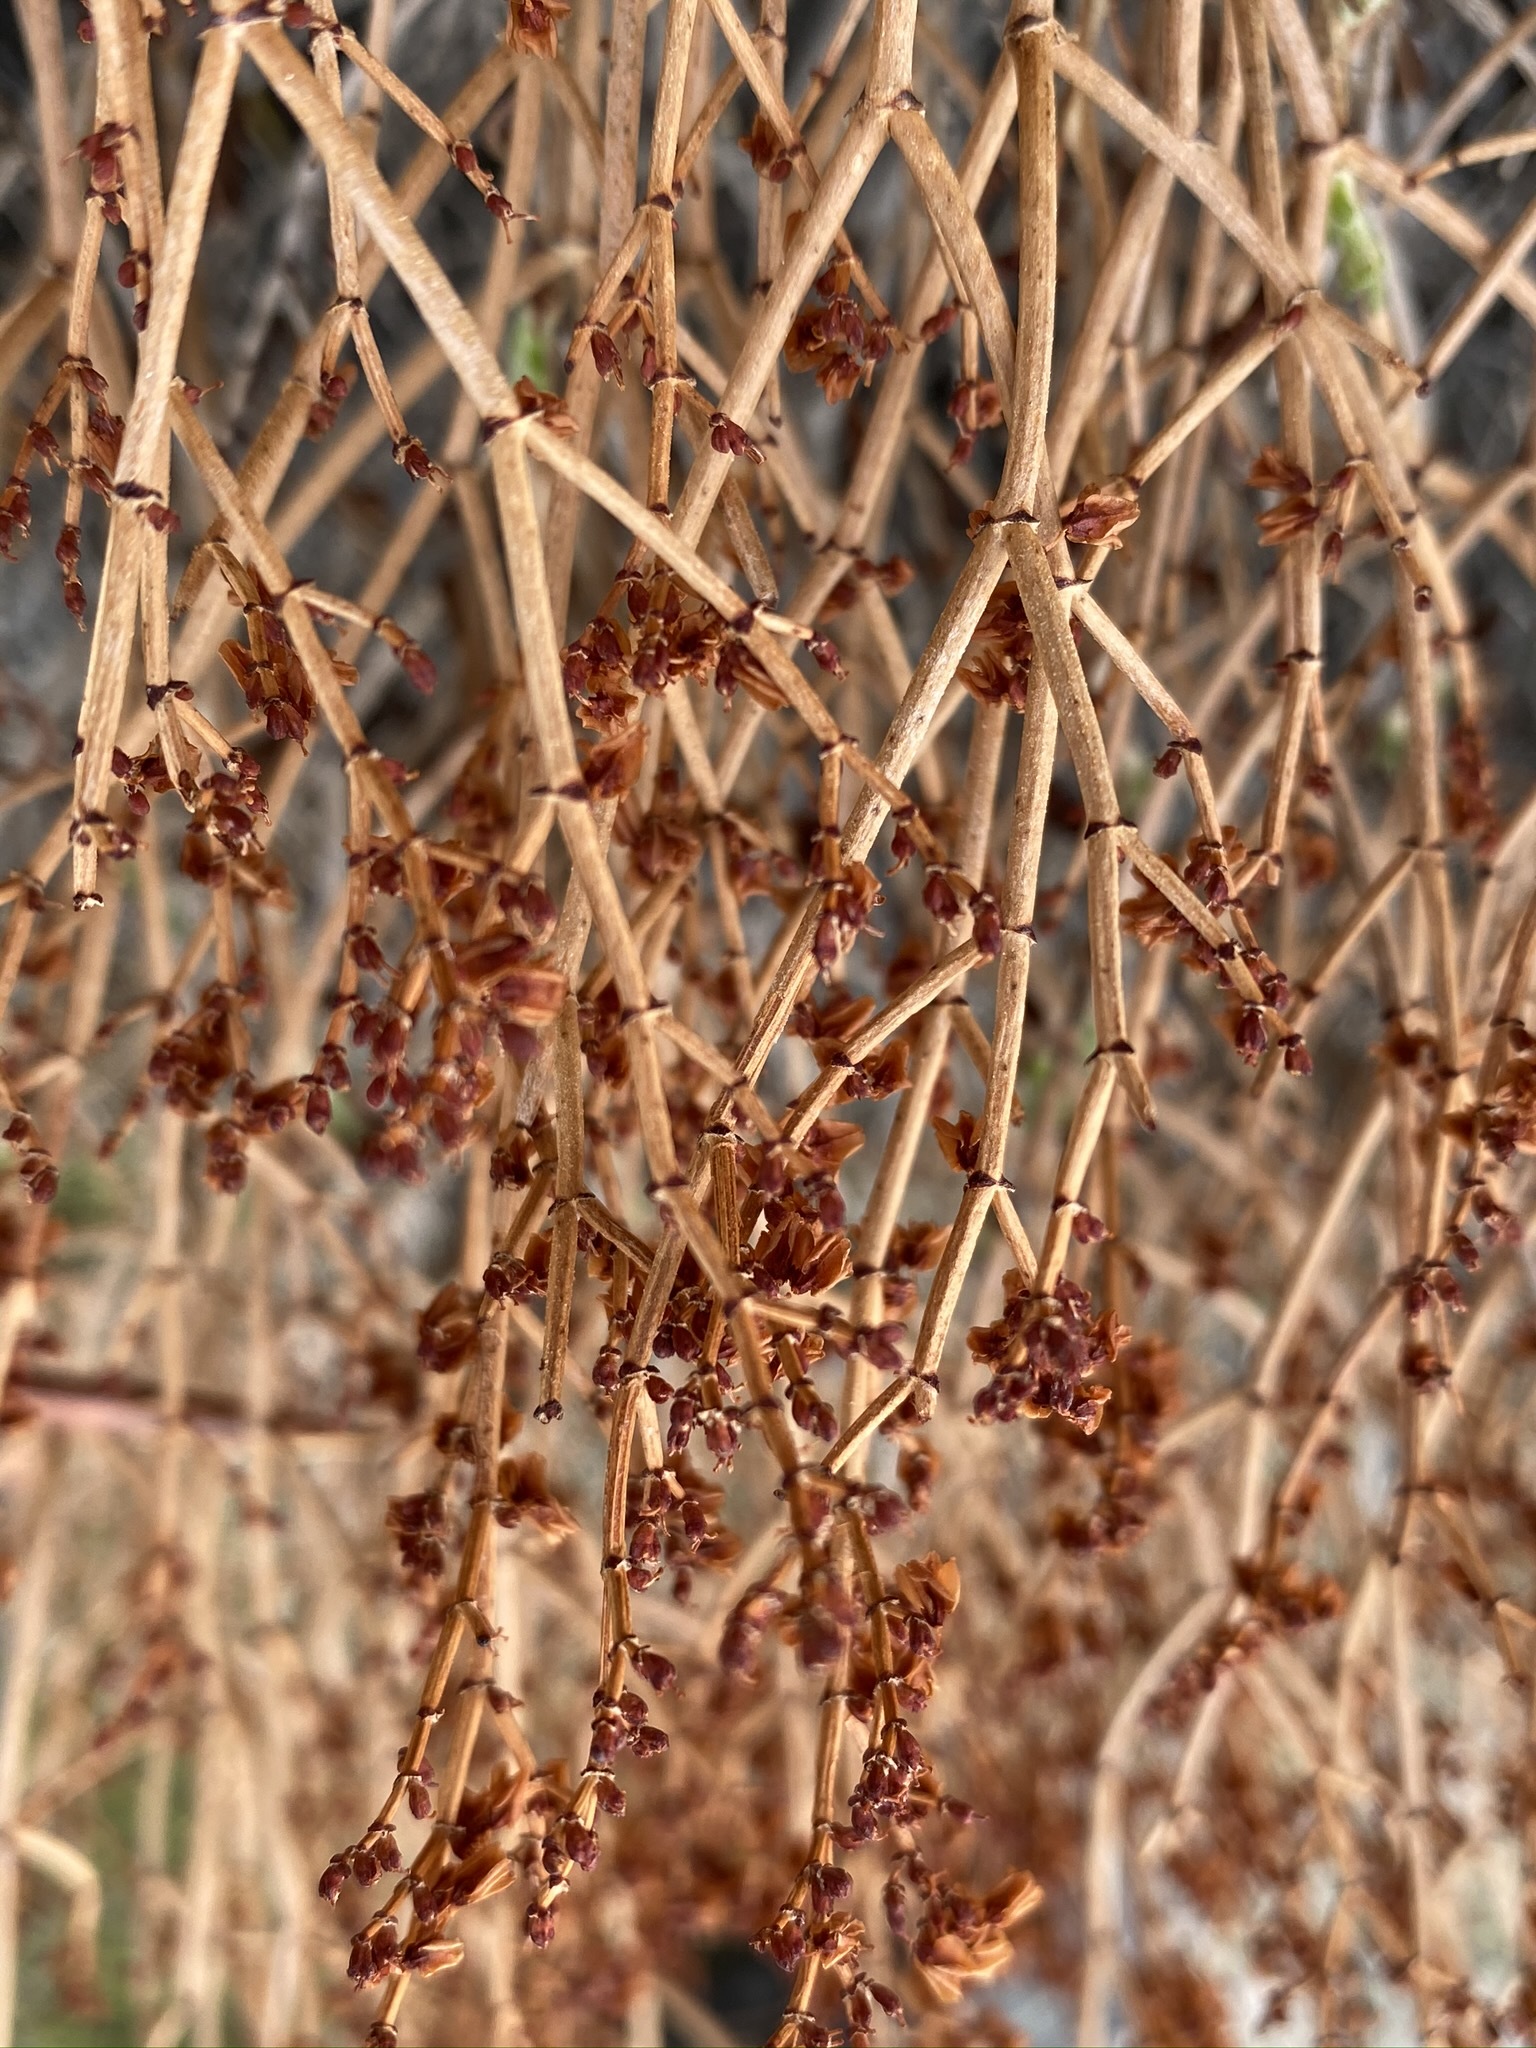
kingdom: Plantae
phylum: Tracheophyta
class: Magnoliopsida
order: Caryophyllales
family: Polygonaceae
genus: Eriogonum
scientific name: Eriogonum heermannii
